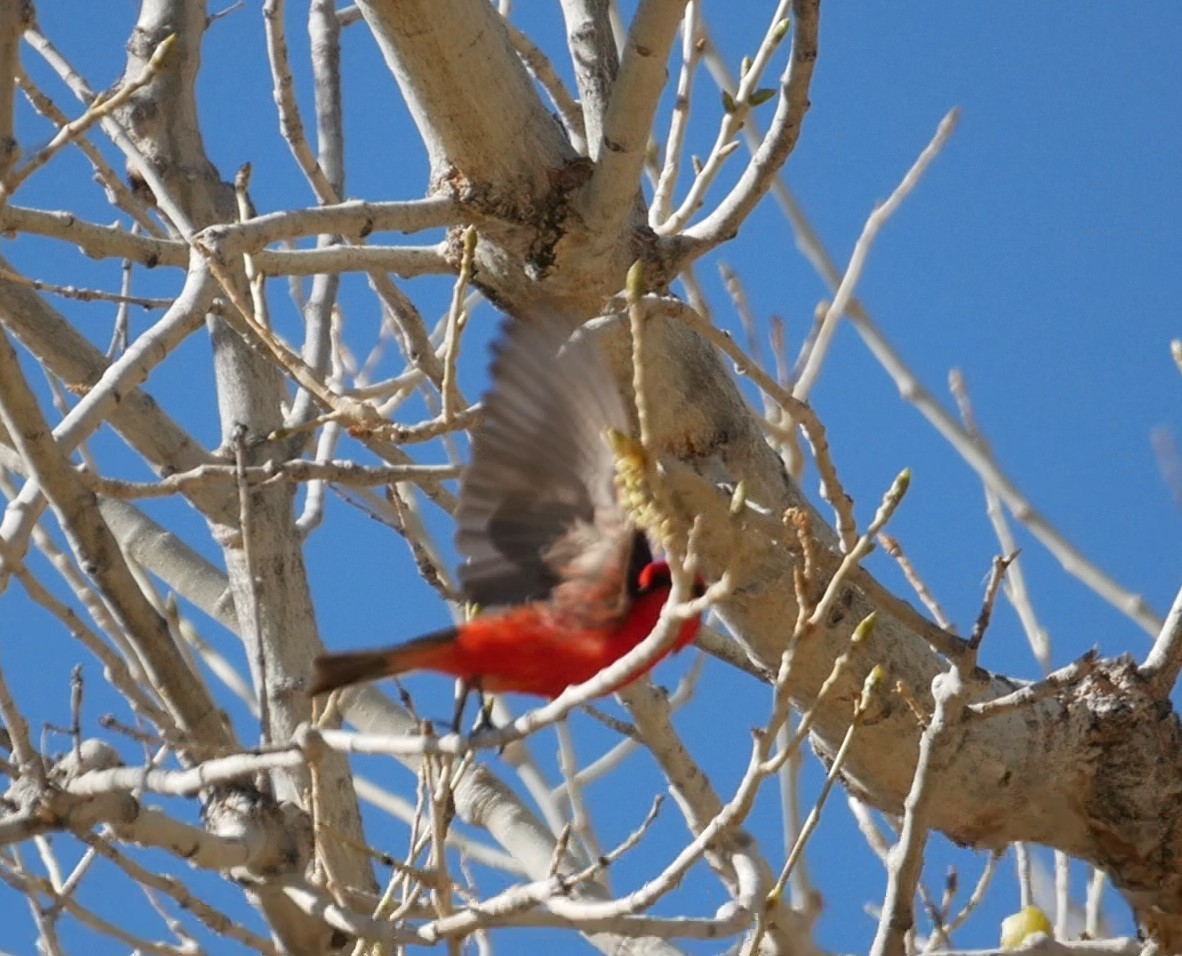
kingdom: Animalia
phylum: Chordata
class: Aves
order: Passeriformes
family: Tyrannidae
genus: Pyrocephalus
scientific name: Pyrocephalus rubinus
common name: Vermilion flycatcher
